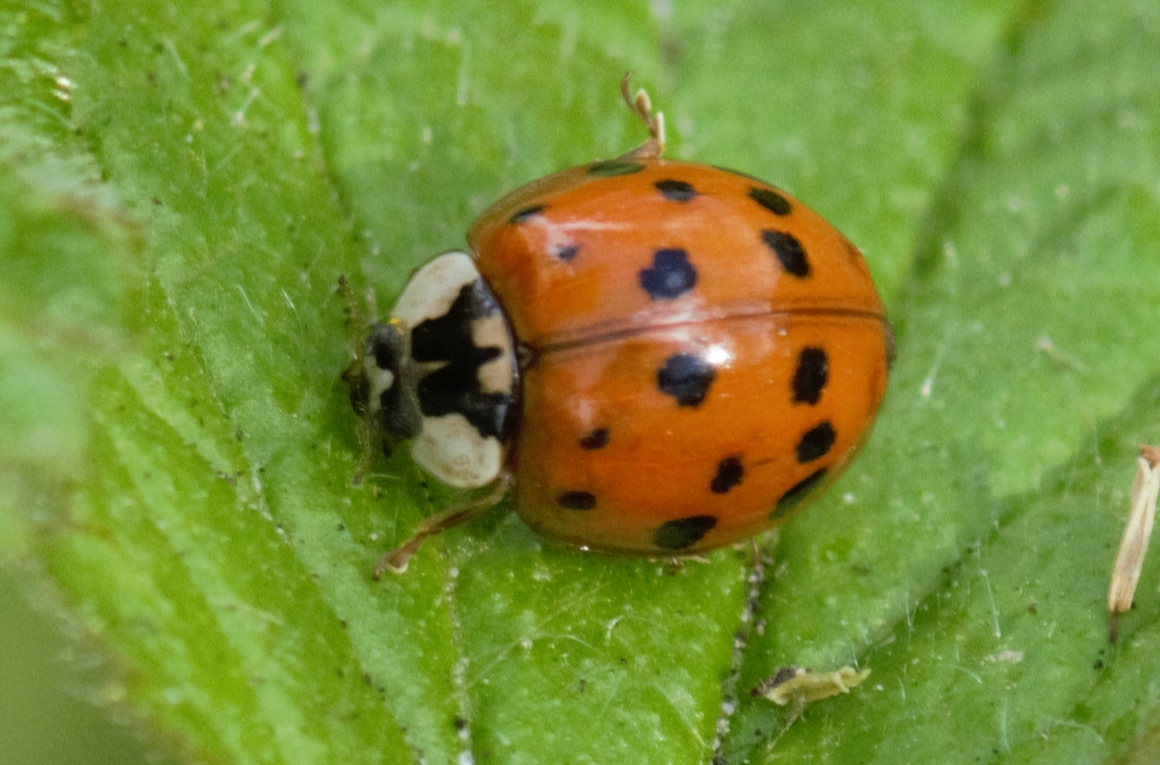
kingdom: Animalia
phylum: Arthropoda
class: Insecta
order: Coleoptera
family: Coccinellidae
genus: Harmonia
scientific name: Harmonia axyridis
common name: Harlequin ladybird
